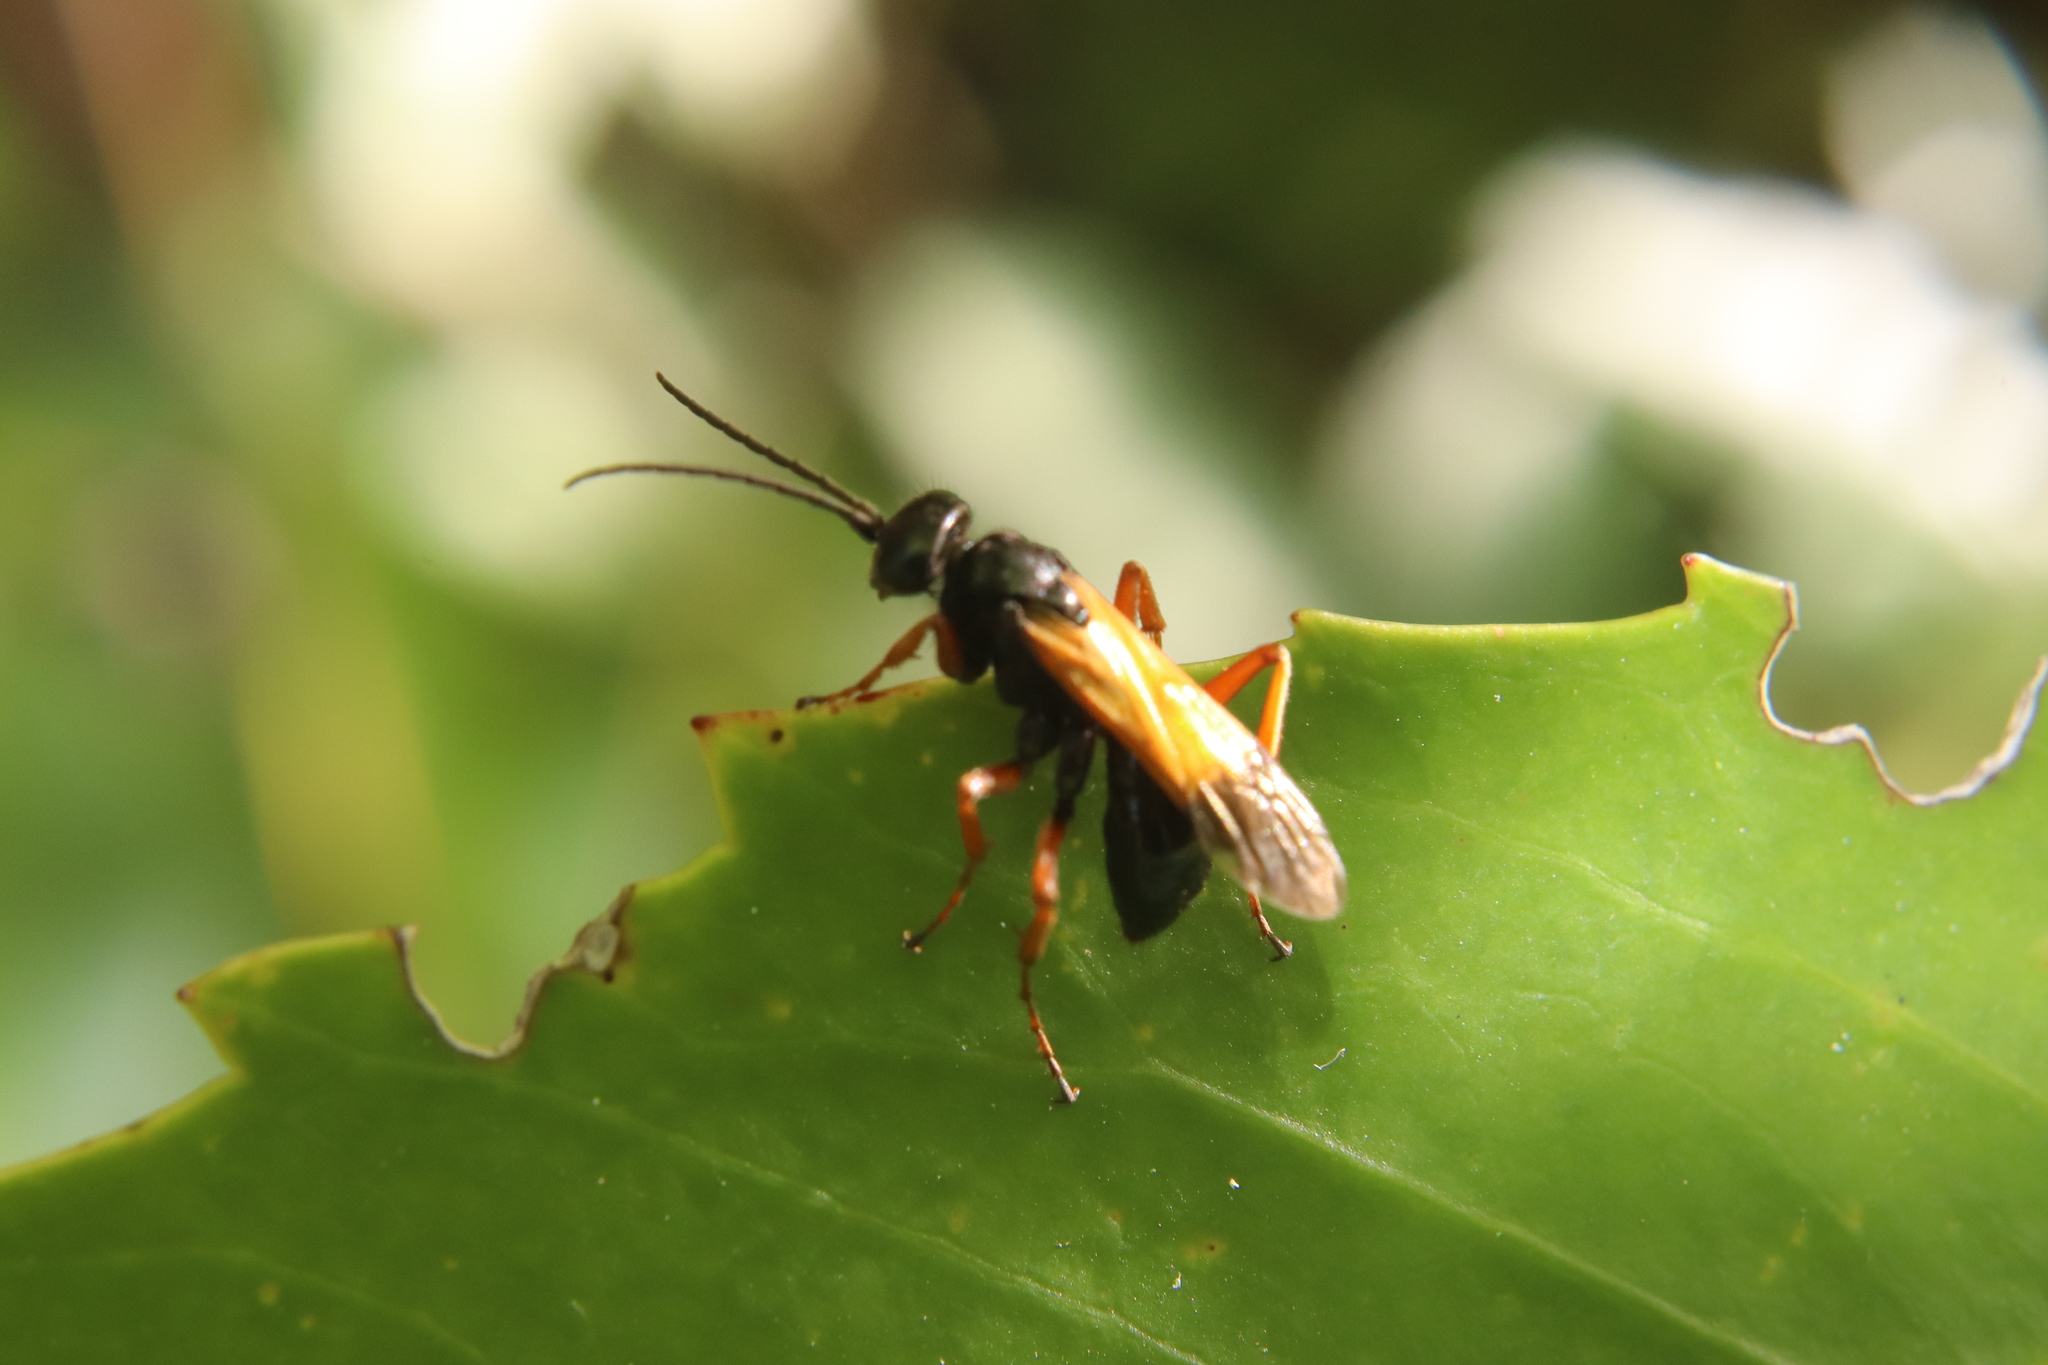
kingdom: Animalia
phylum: Arthropoda
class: Insecta
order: Hymenoptera
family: Pompilidae
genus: Priocnemis
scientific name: Priocnemis conformis
